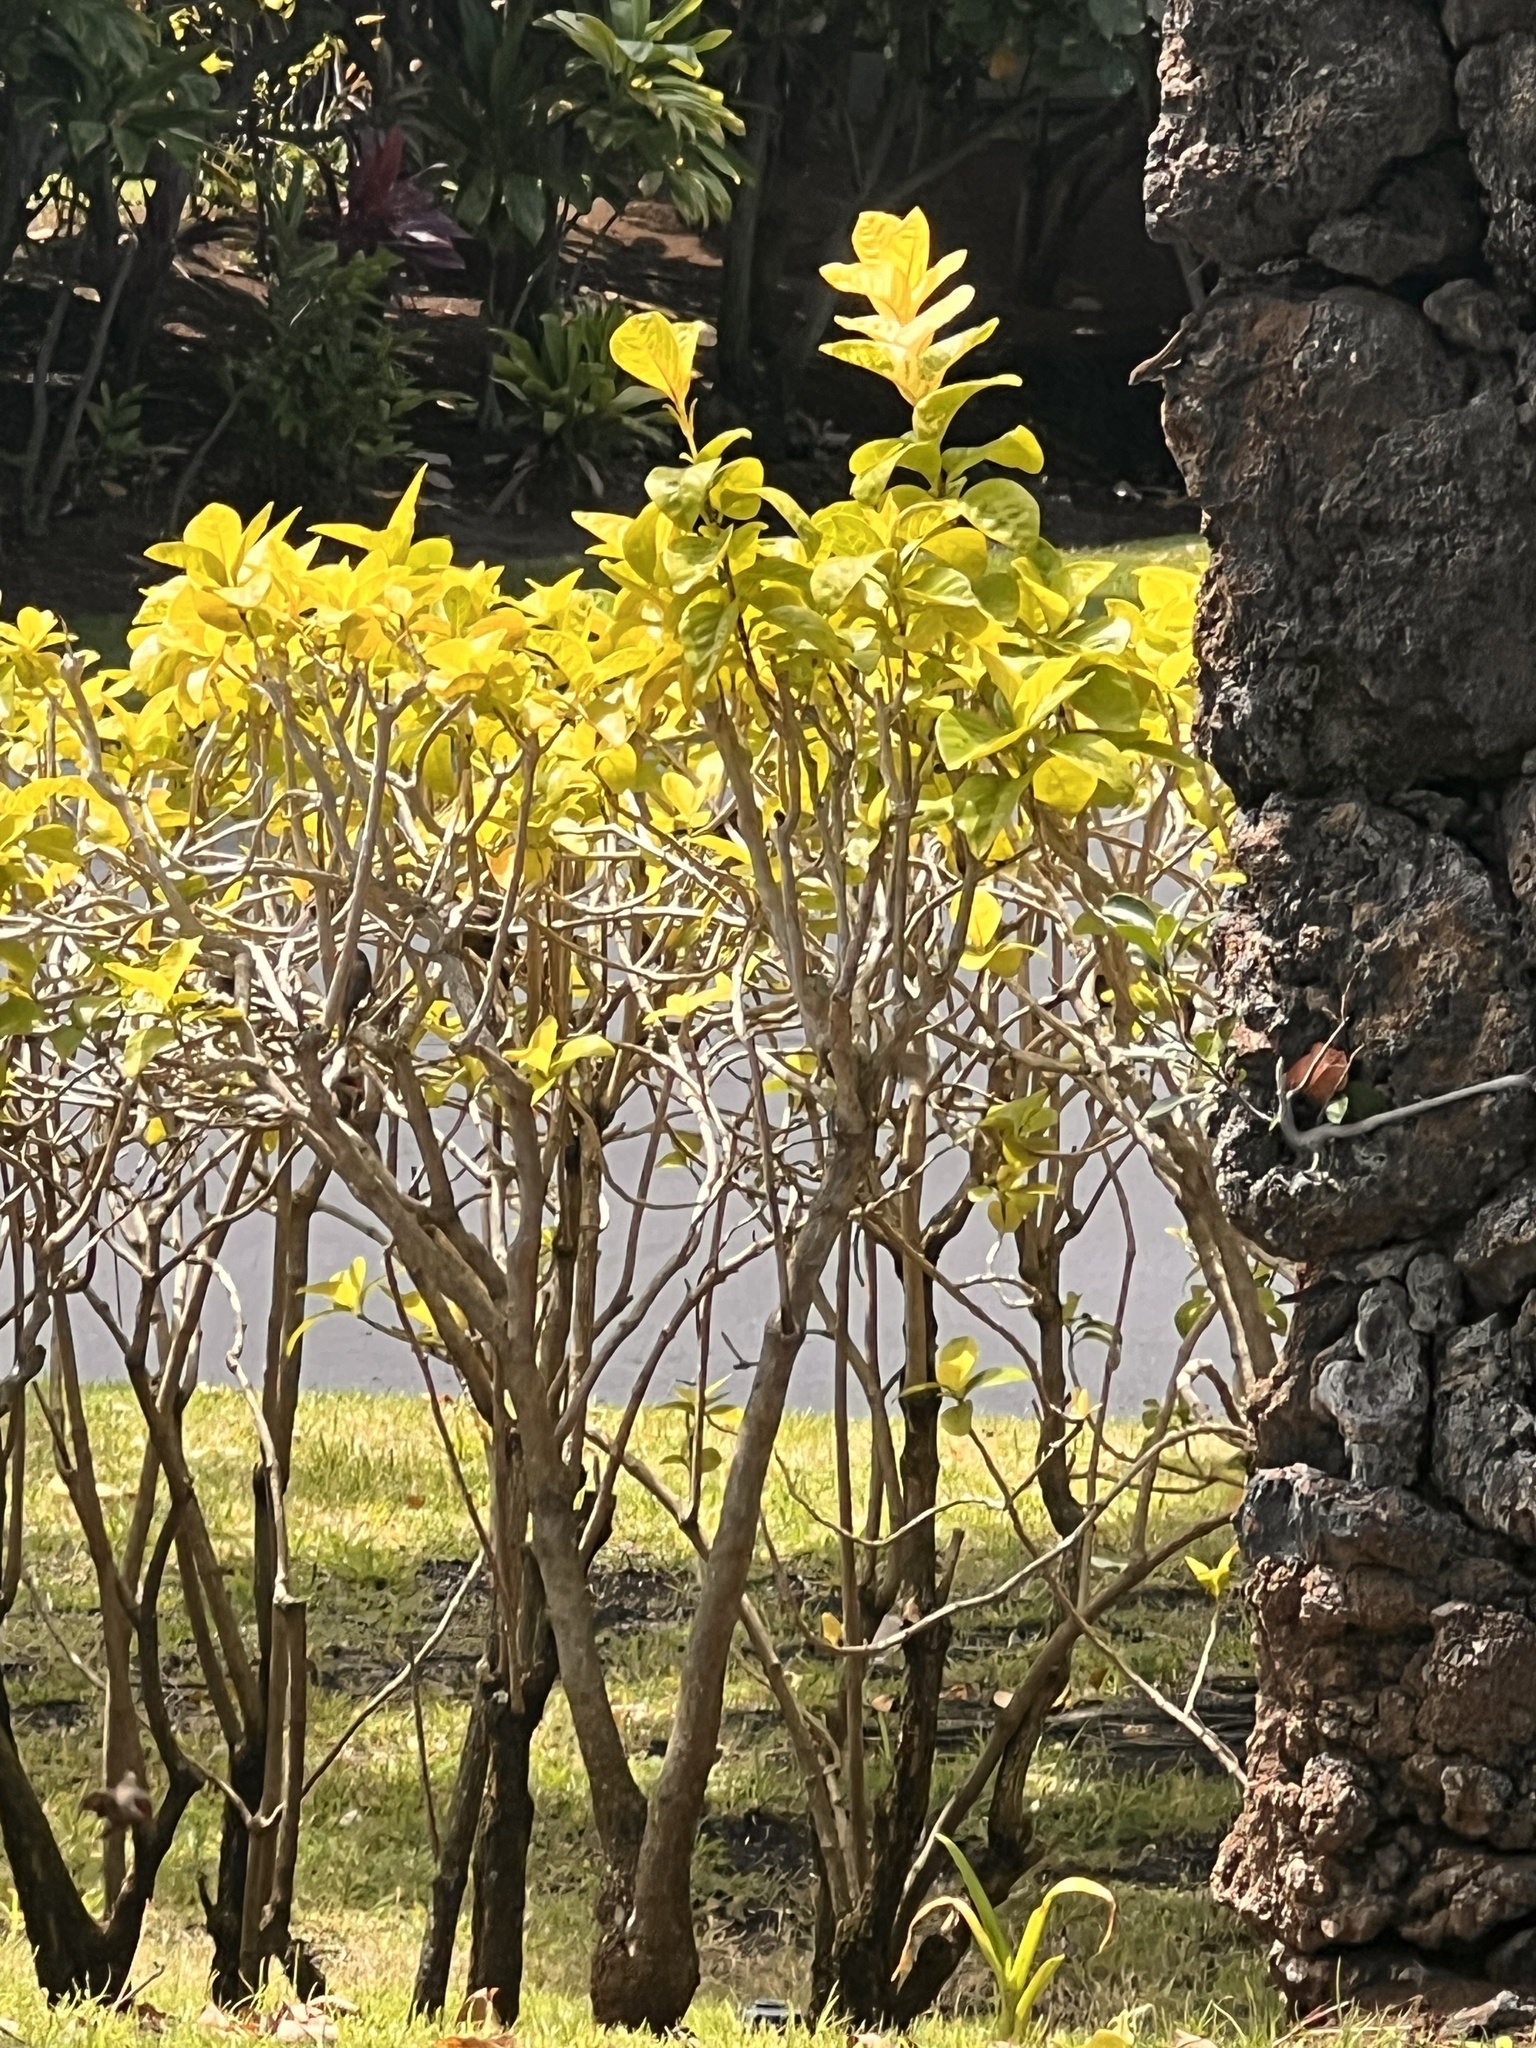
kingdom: Animalia
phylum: Chordata
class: Aves
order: Passeriformes
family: Estrildidae
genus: Estrilda
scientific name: Estrilda astrild
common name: Common waxbill
